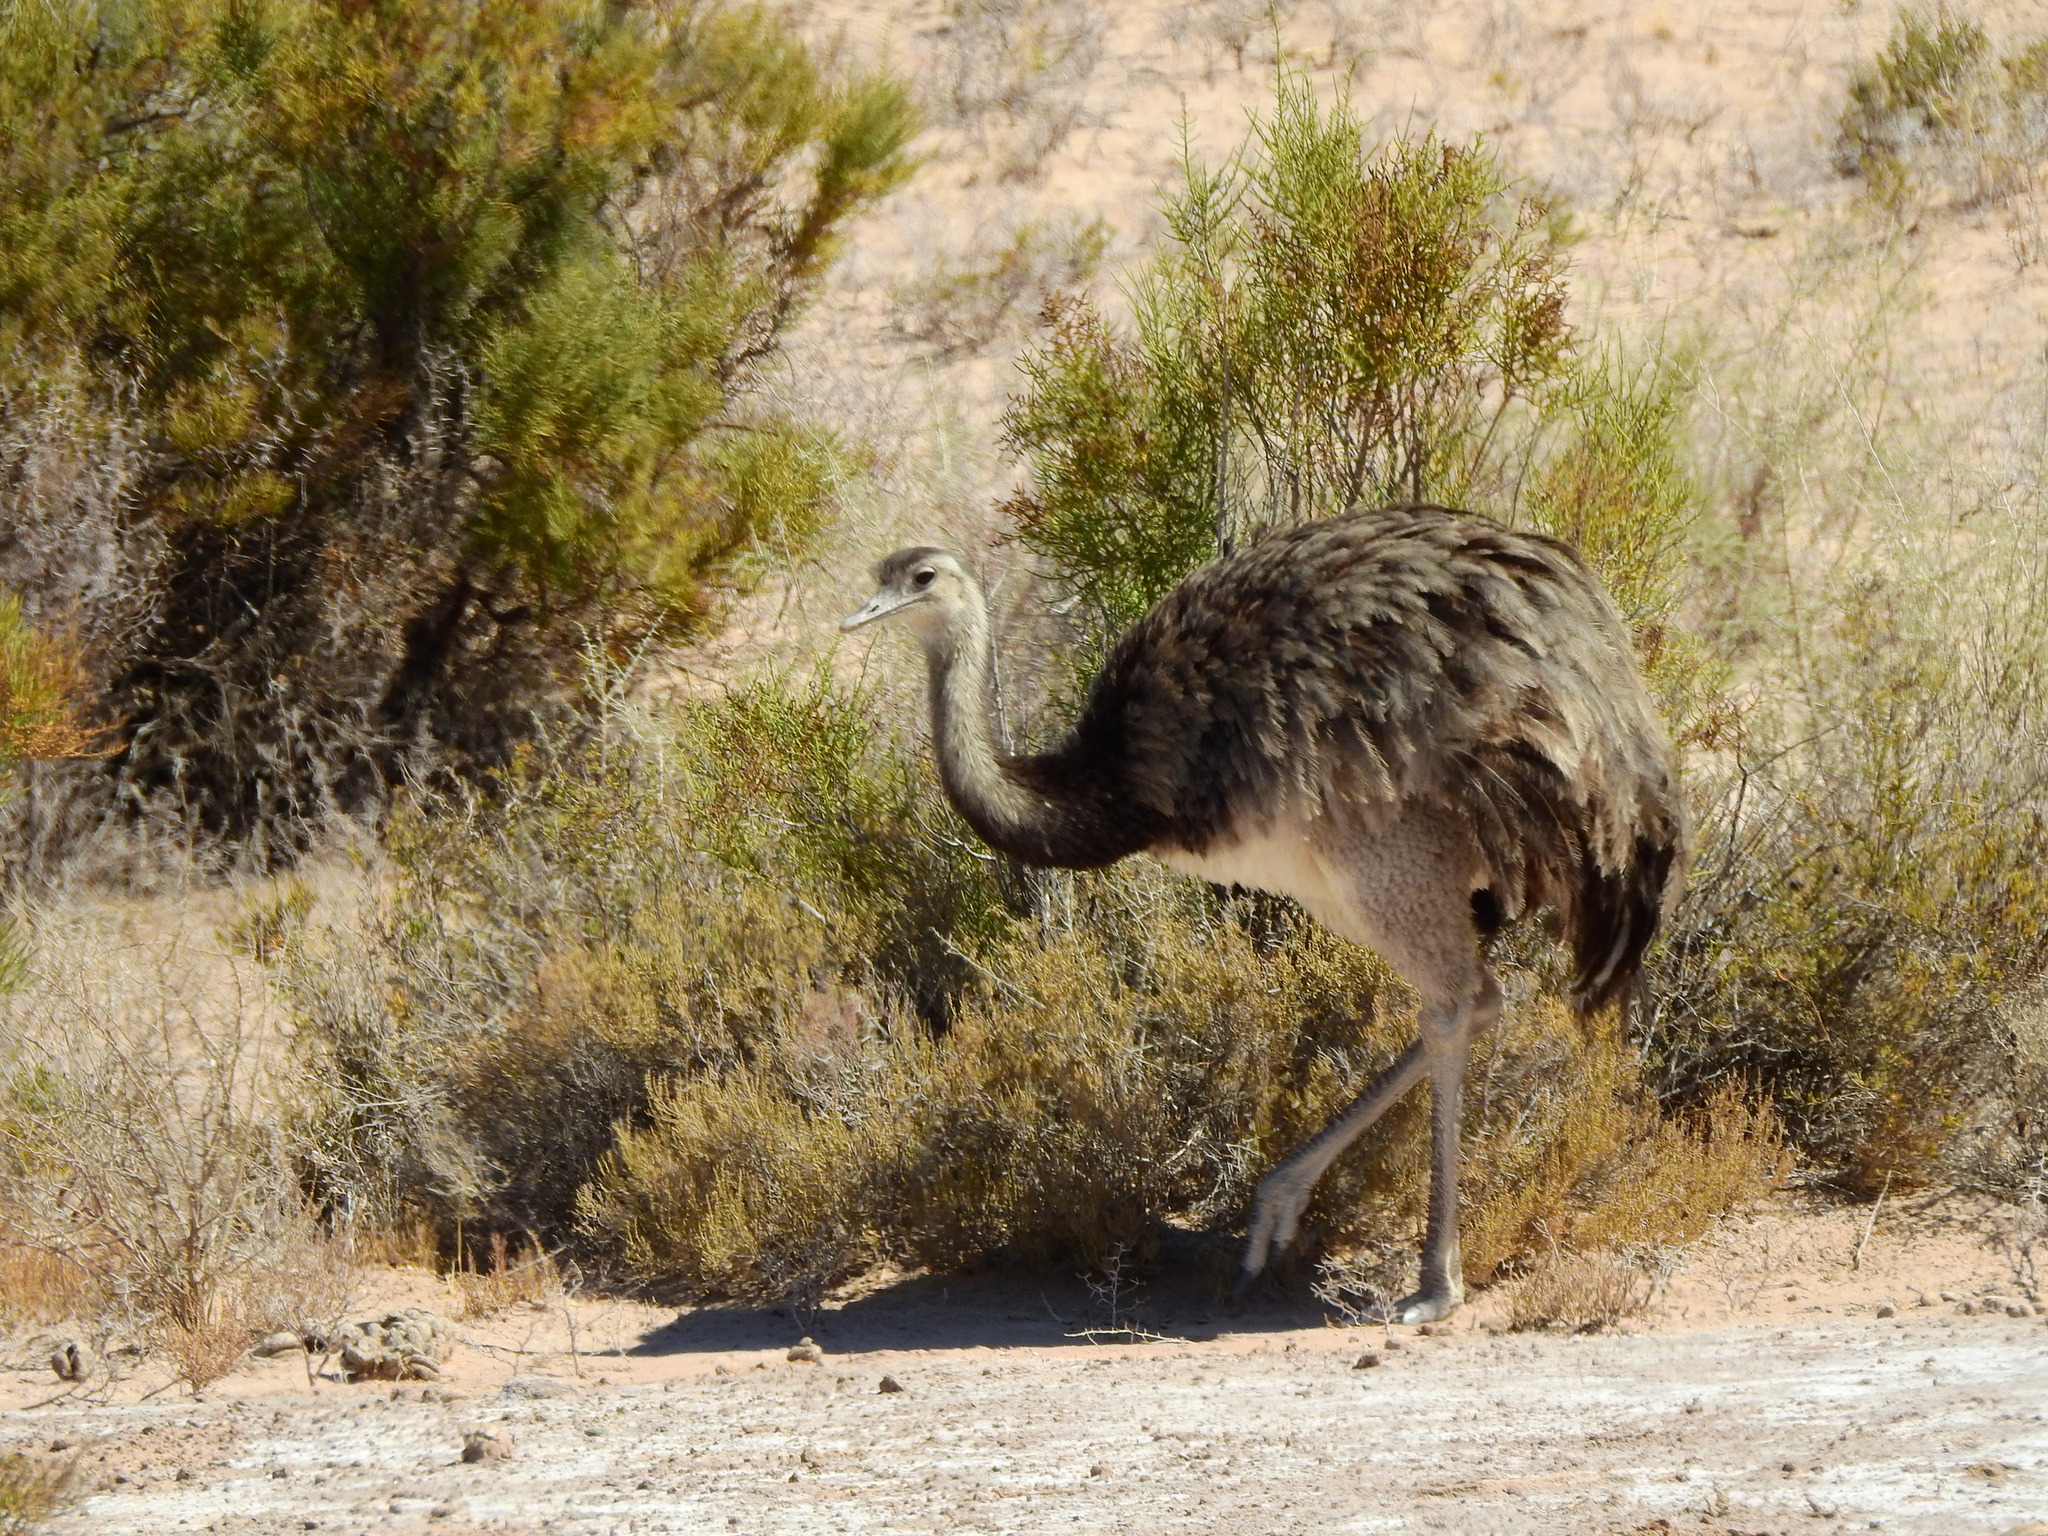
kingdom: Animalia
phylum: Chordata
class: Aves
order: Rheiformes
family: Rheidae
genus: Rhea
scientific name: Rhea americana
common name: Greater rhea
